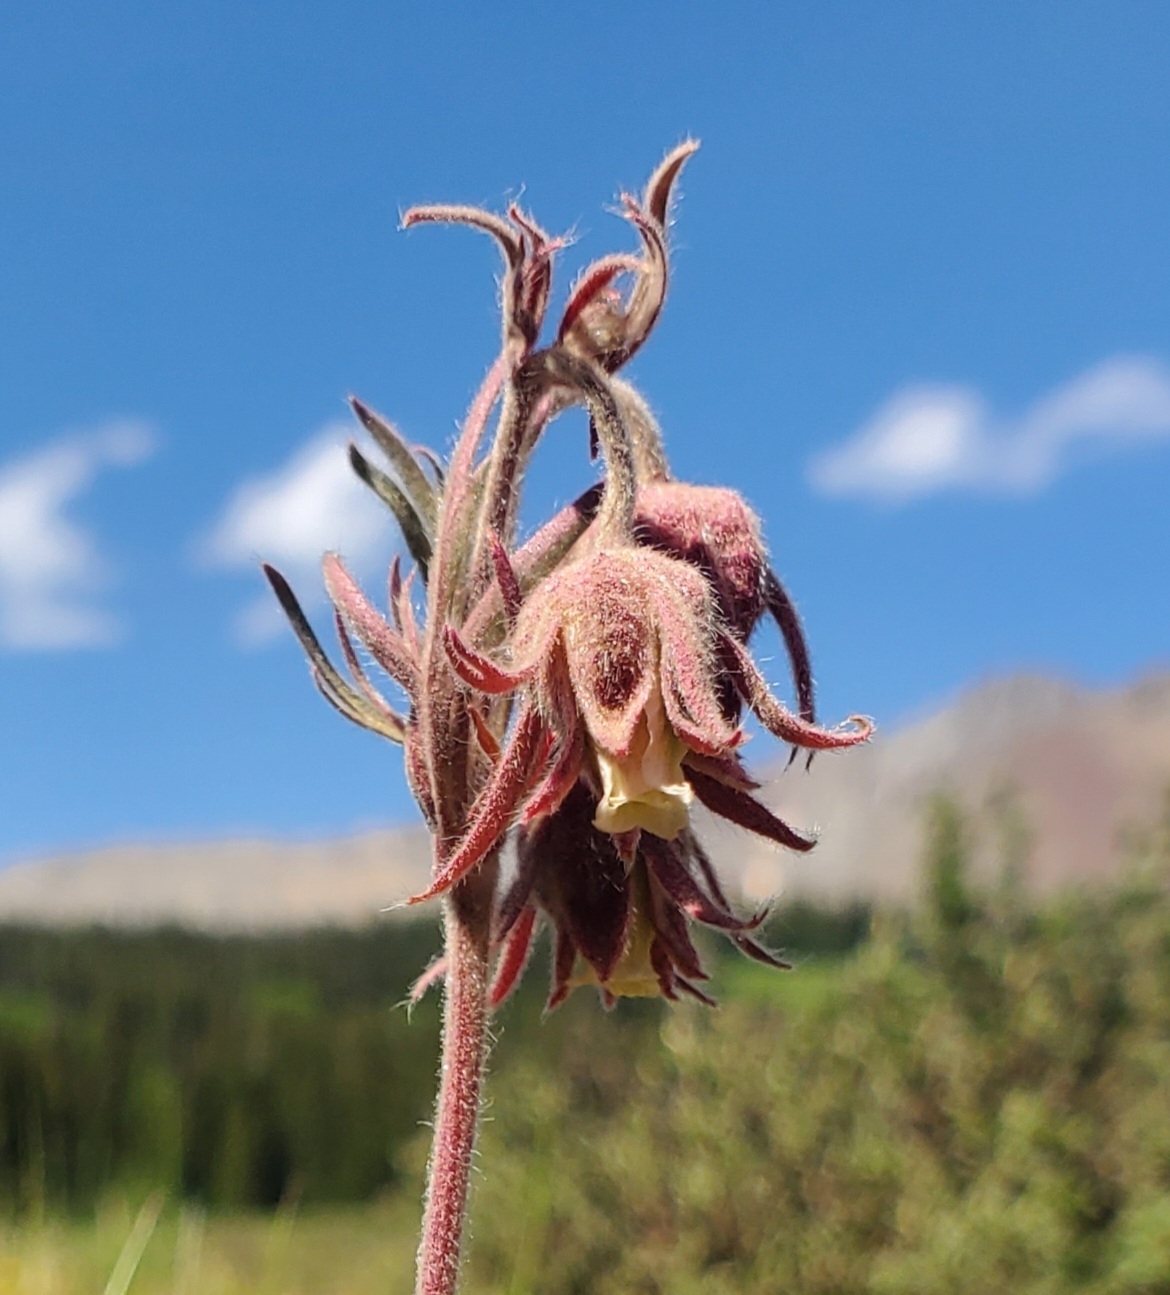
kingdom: Plantae
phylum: Tracheophyta
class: Magnoliopsida
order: Rosales
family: Rosaceae
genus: Geum
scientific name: Geum triflorum
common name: Old man's whiskers
